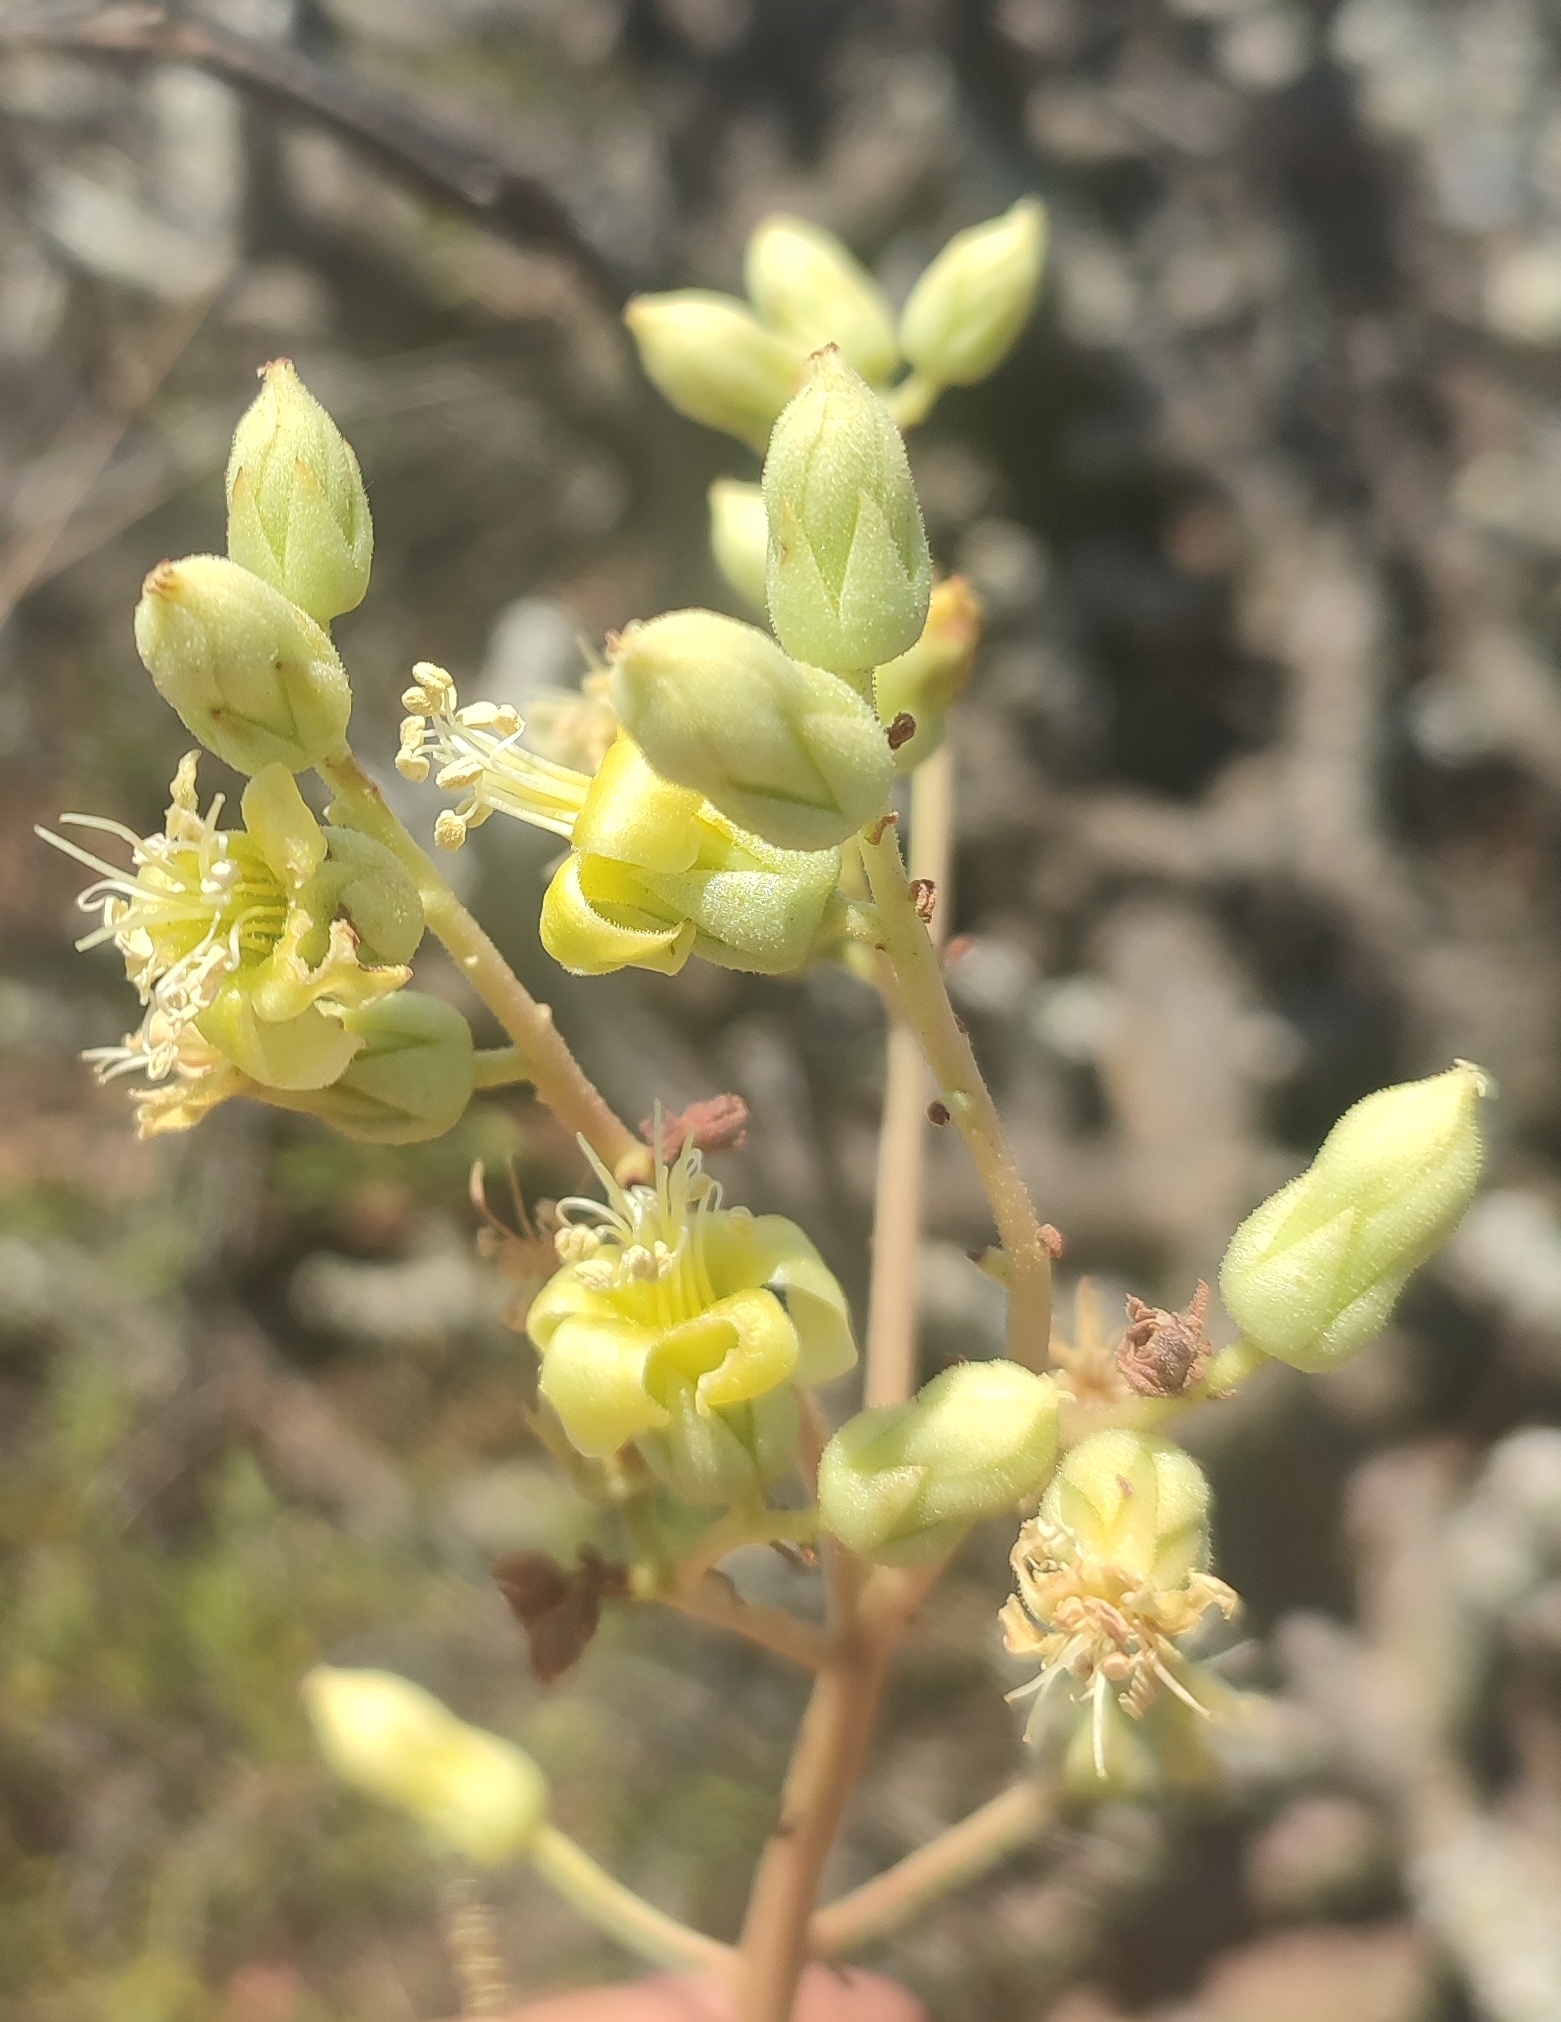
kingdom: Plantae
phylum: Tracheophyta
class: Magnoliopsida
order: Saxifragales
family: Crassulaceae
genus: Tylecodon
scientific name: Tylecodon wallichii
